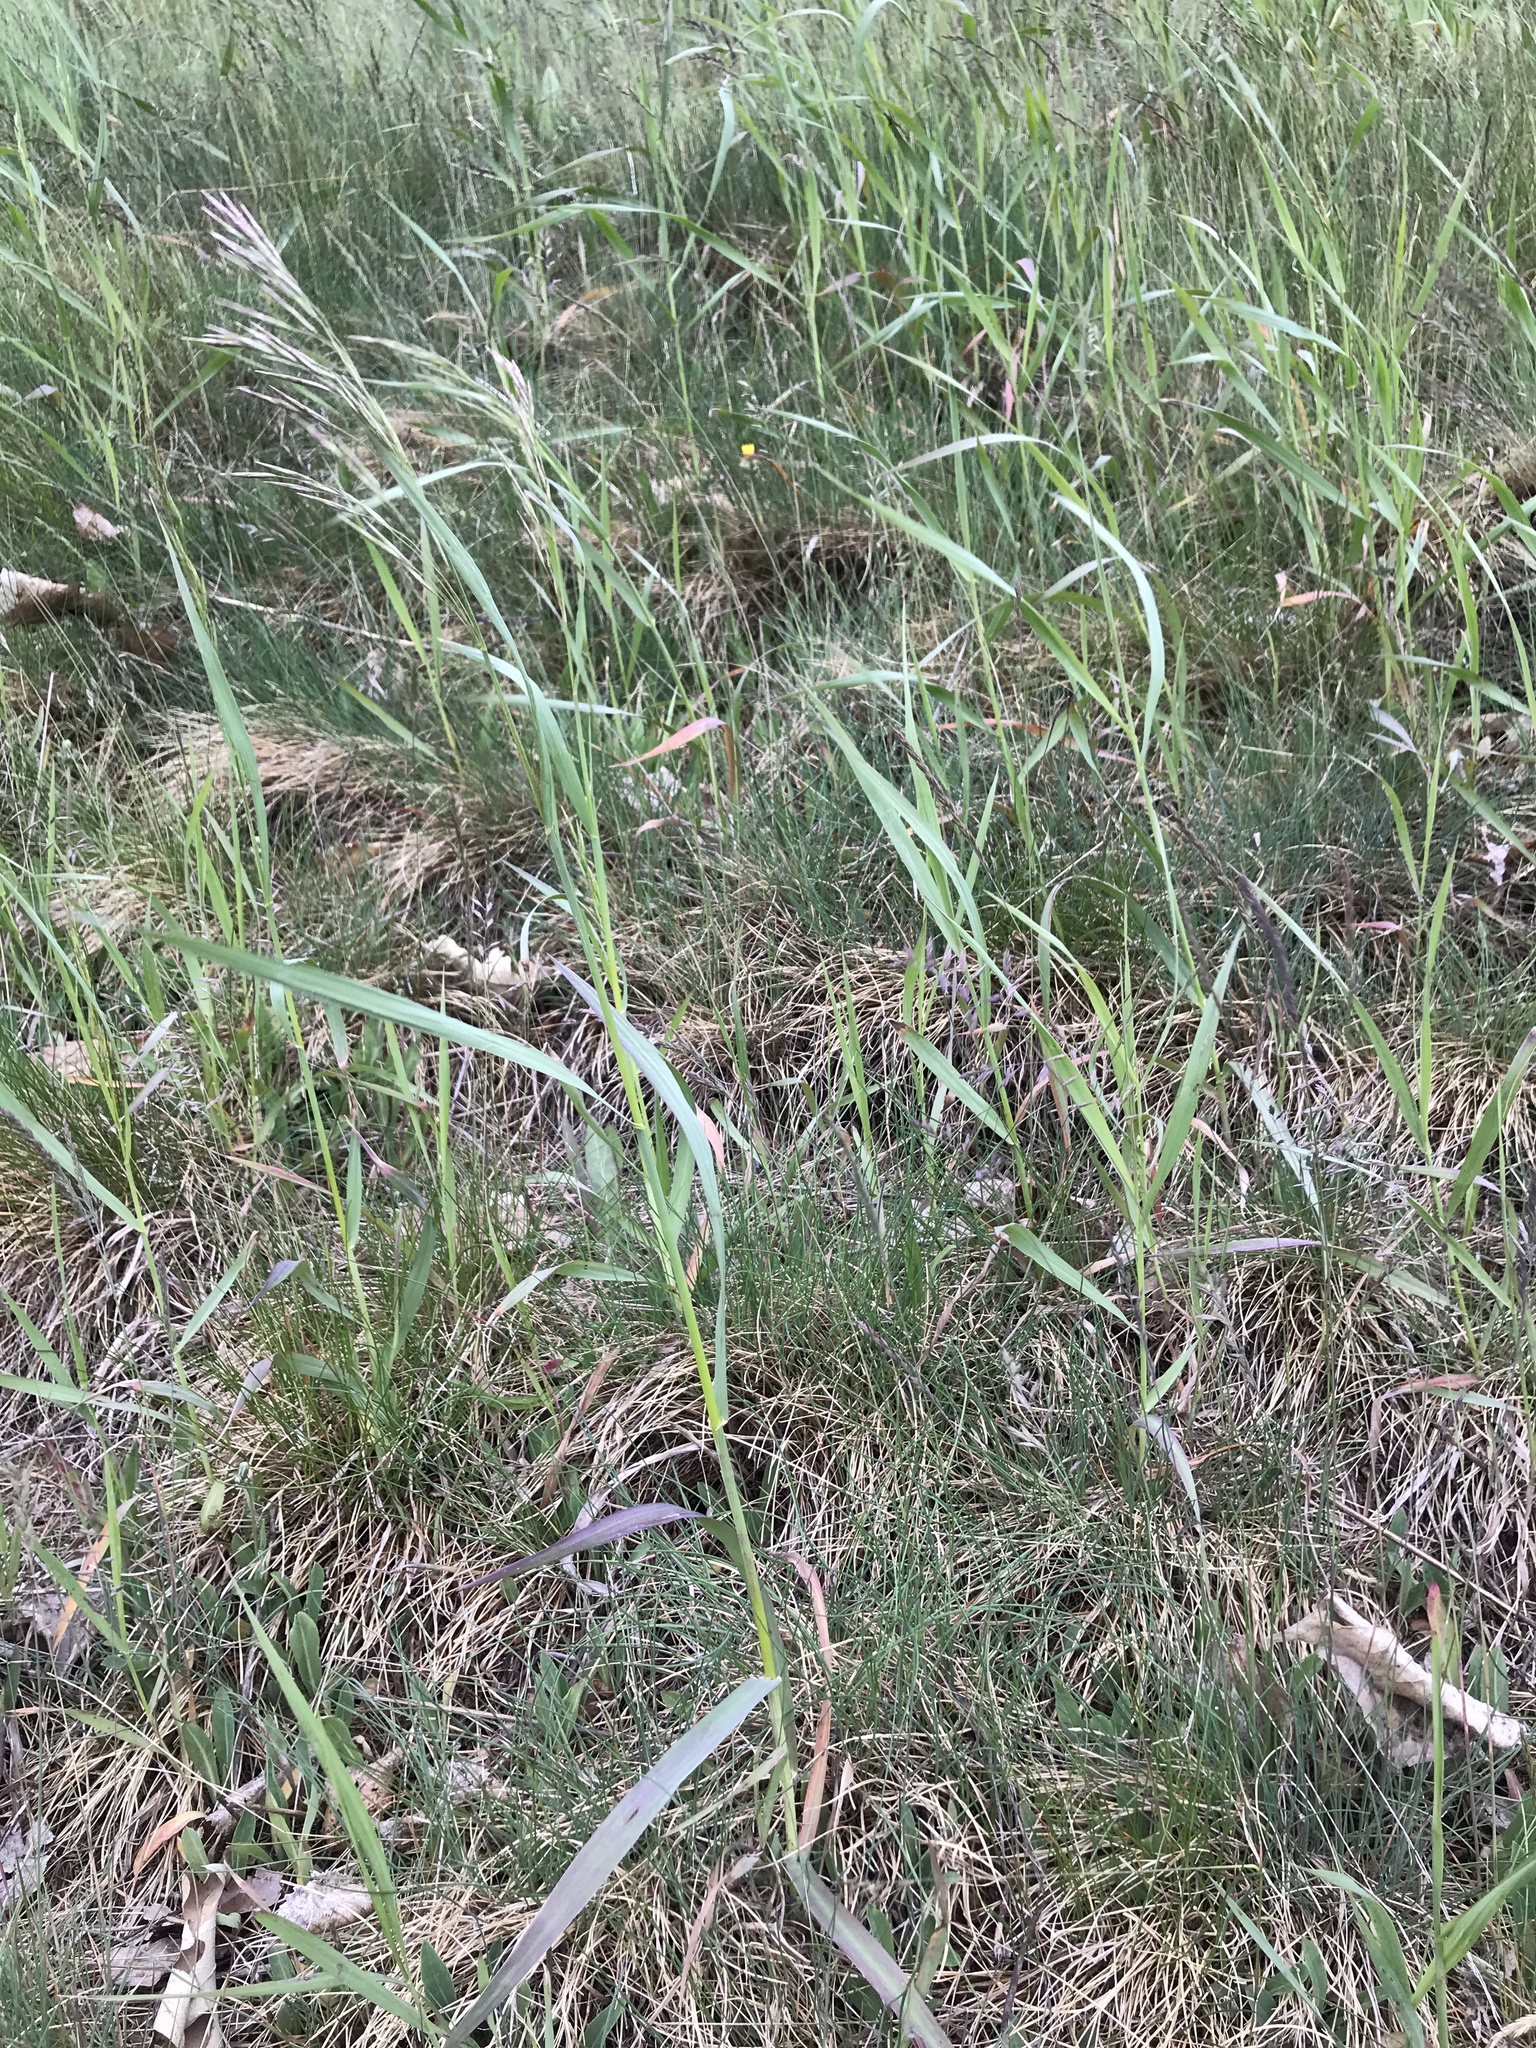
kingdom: Plantae
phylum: Tracheophyta
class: Liliopsida
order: Poales
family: Poaceae
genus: Bromus
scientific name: Bromus inermis
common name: Smooth brome
